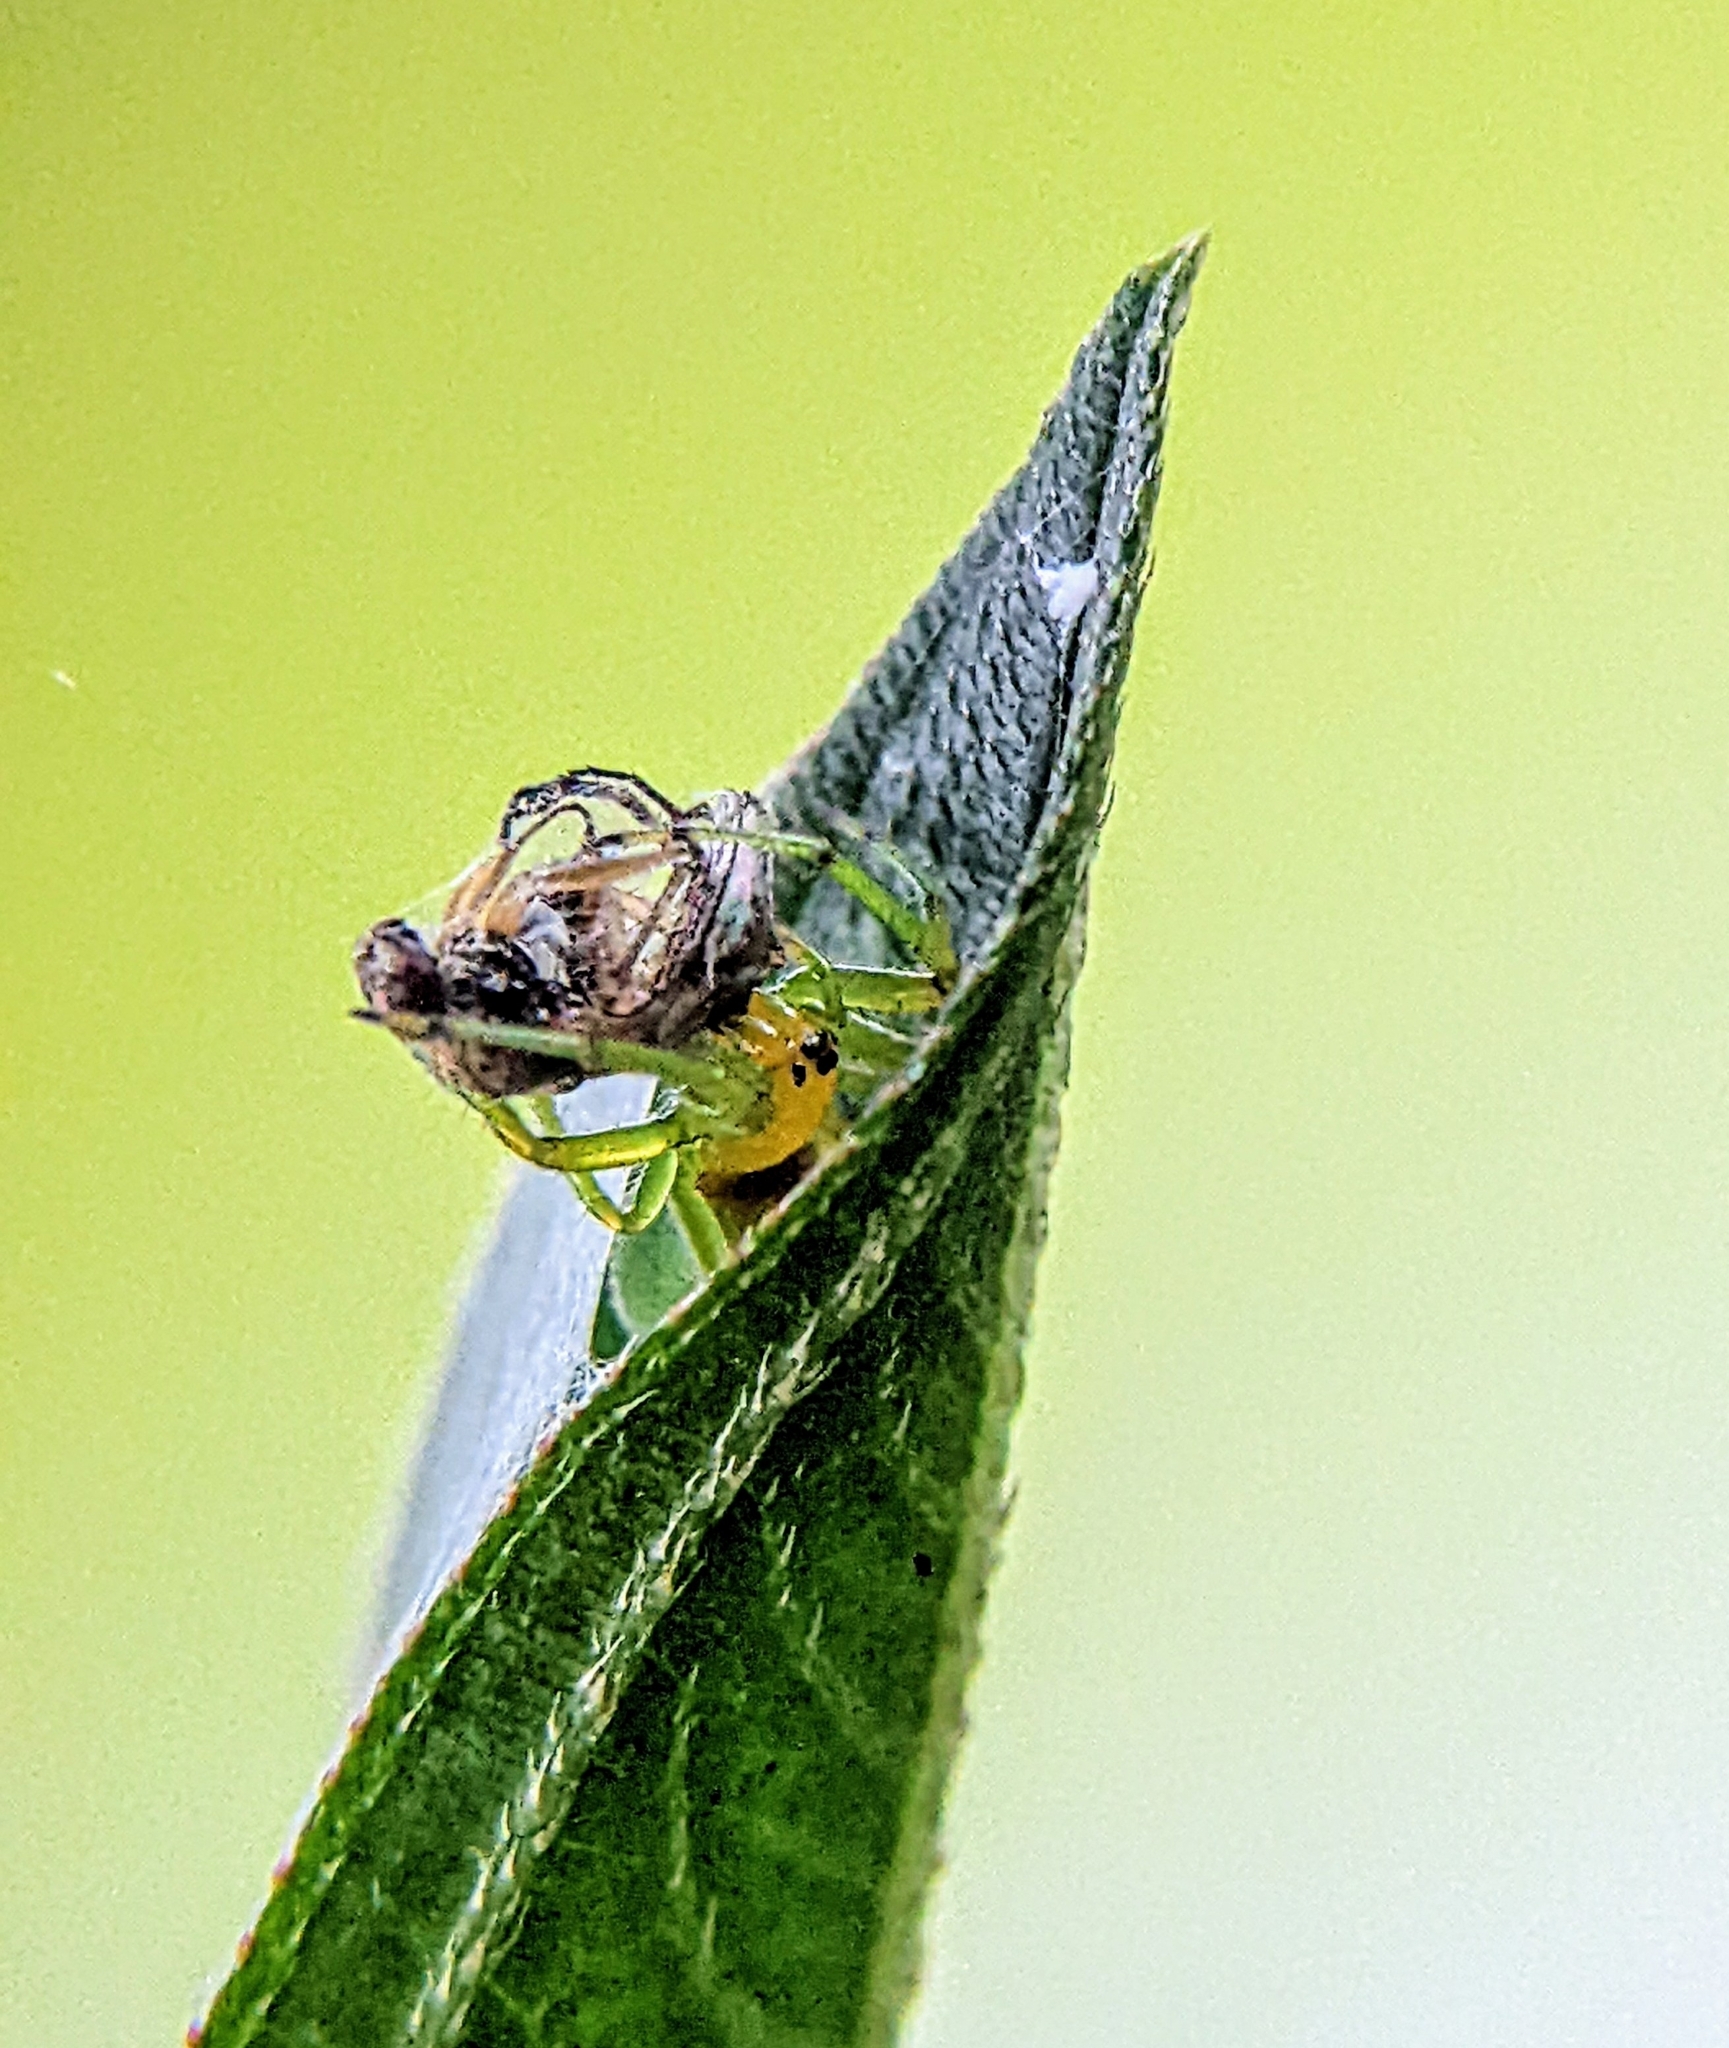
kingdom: Animalia
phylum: Arthropoda
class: Arachnida
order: Araneae
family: Araneidae
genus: Bijoaraneus
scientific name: Bijoaraneus mitificus
